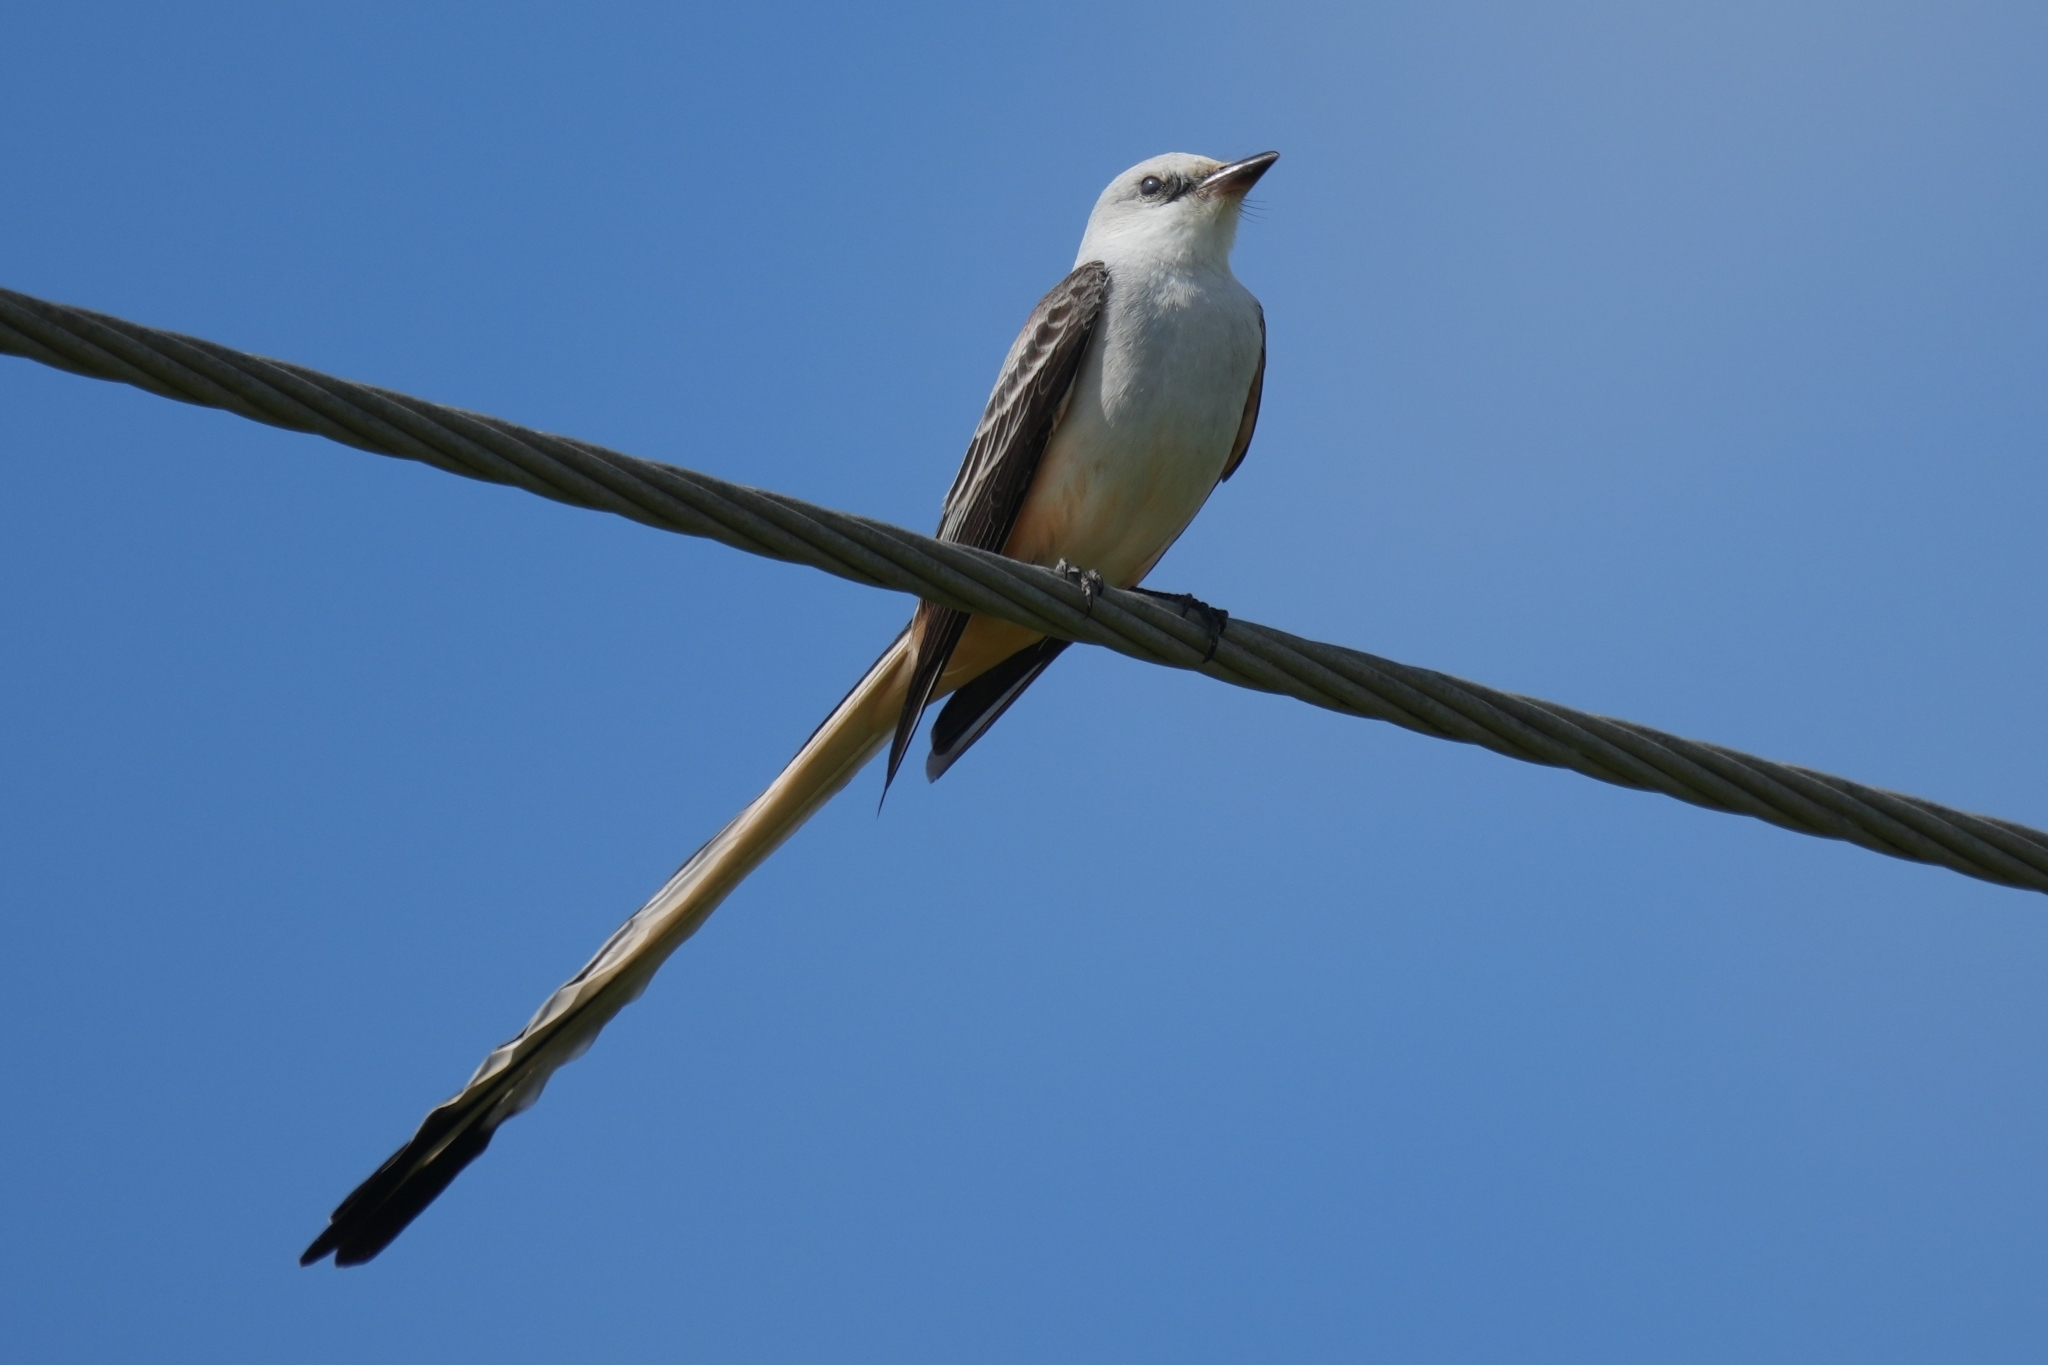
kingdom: Animalia
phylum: Chordata
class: Aves
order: Passeriformes
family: Tyrannidae
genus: Tyrannus
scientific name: Tyrannus forficatus
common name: Scissor-tailed flycatcher
